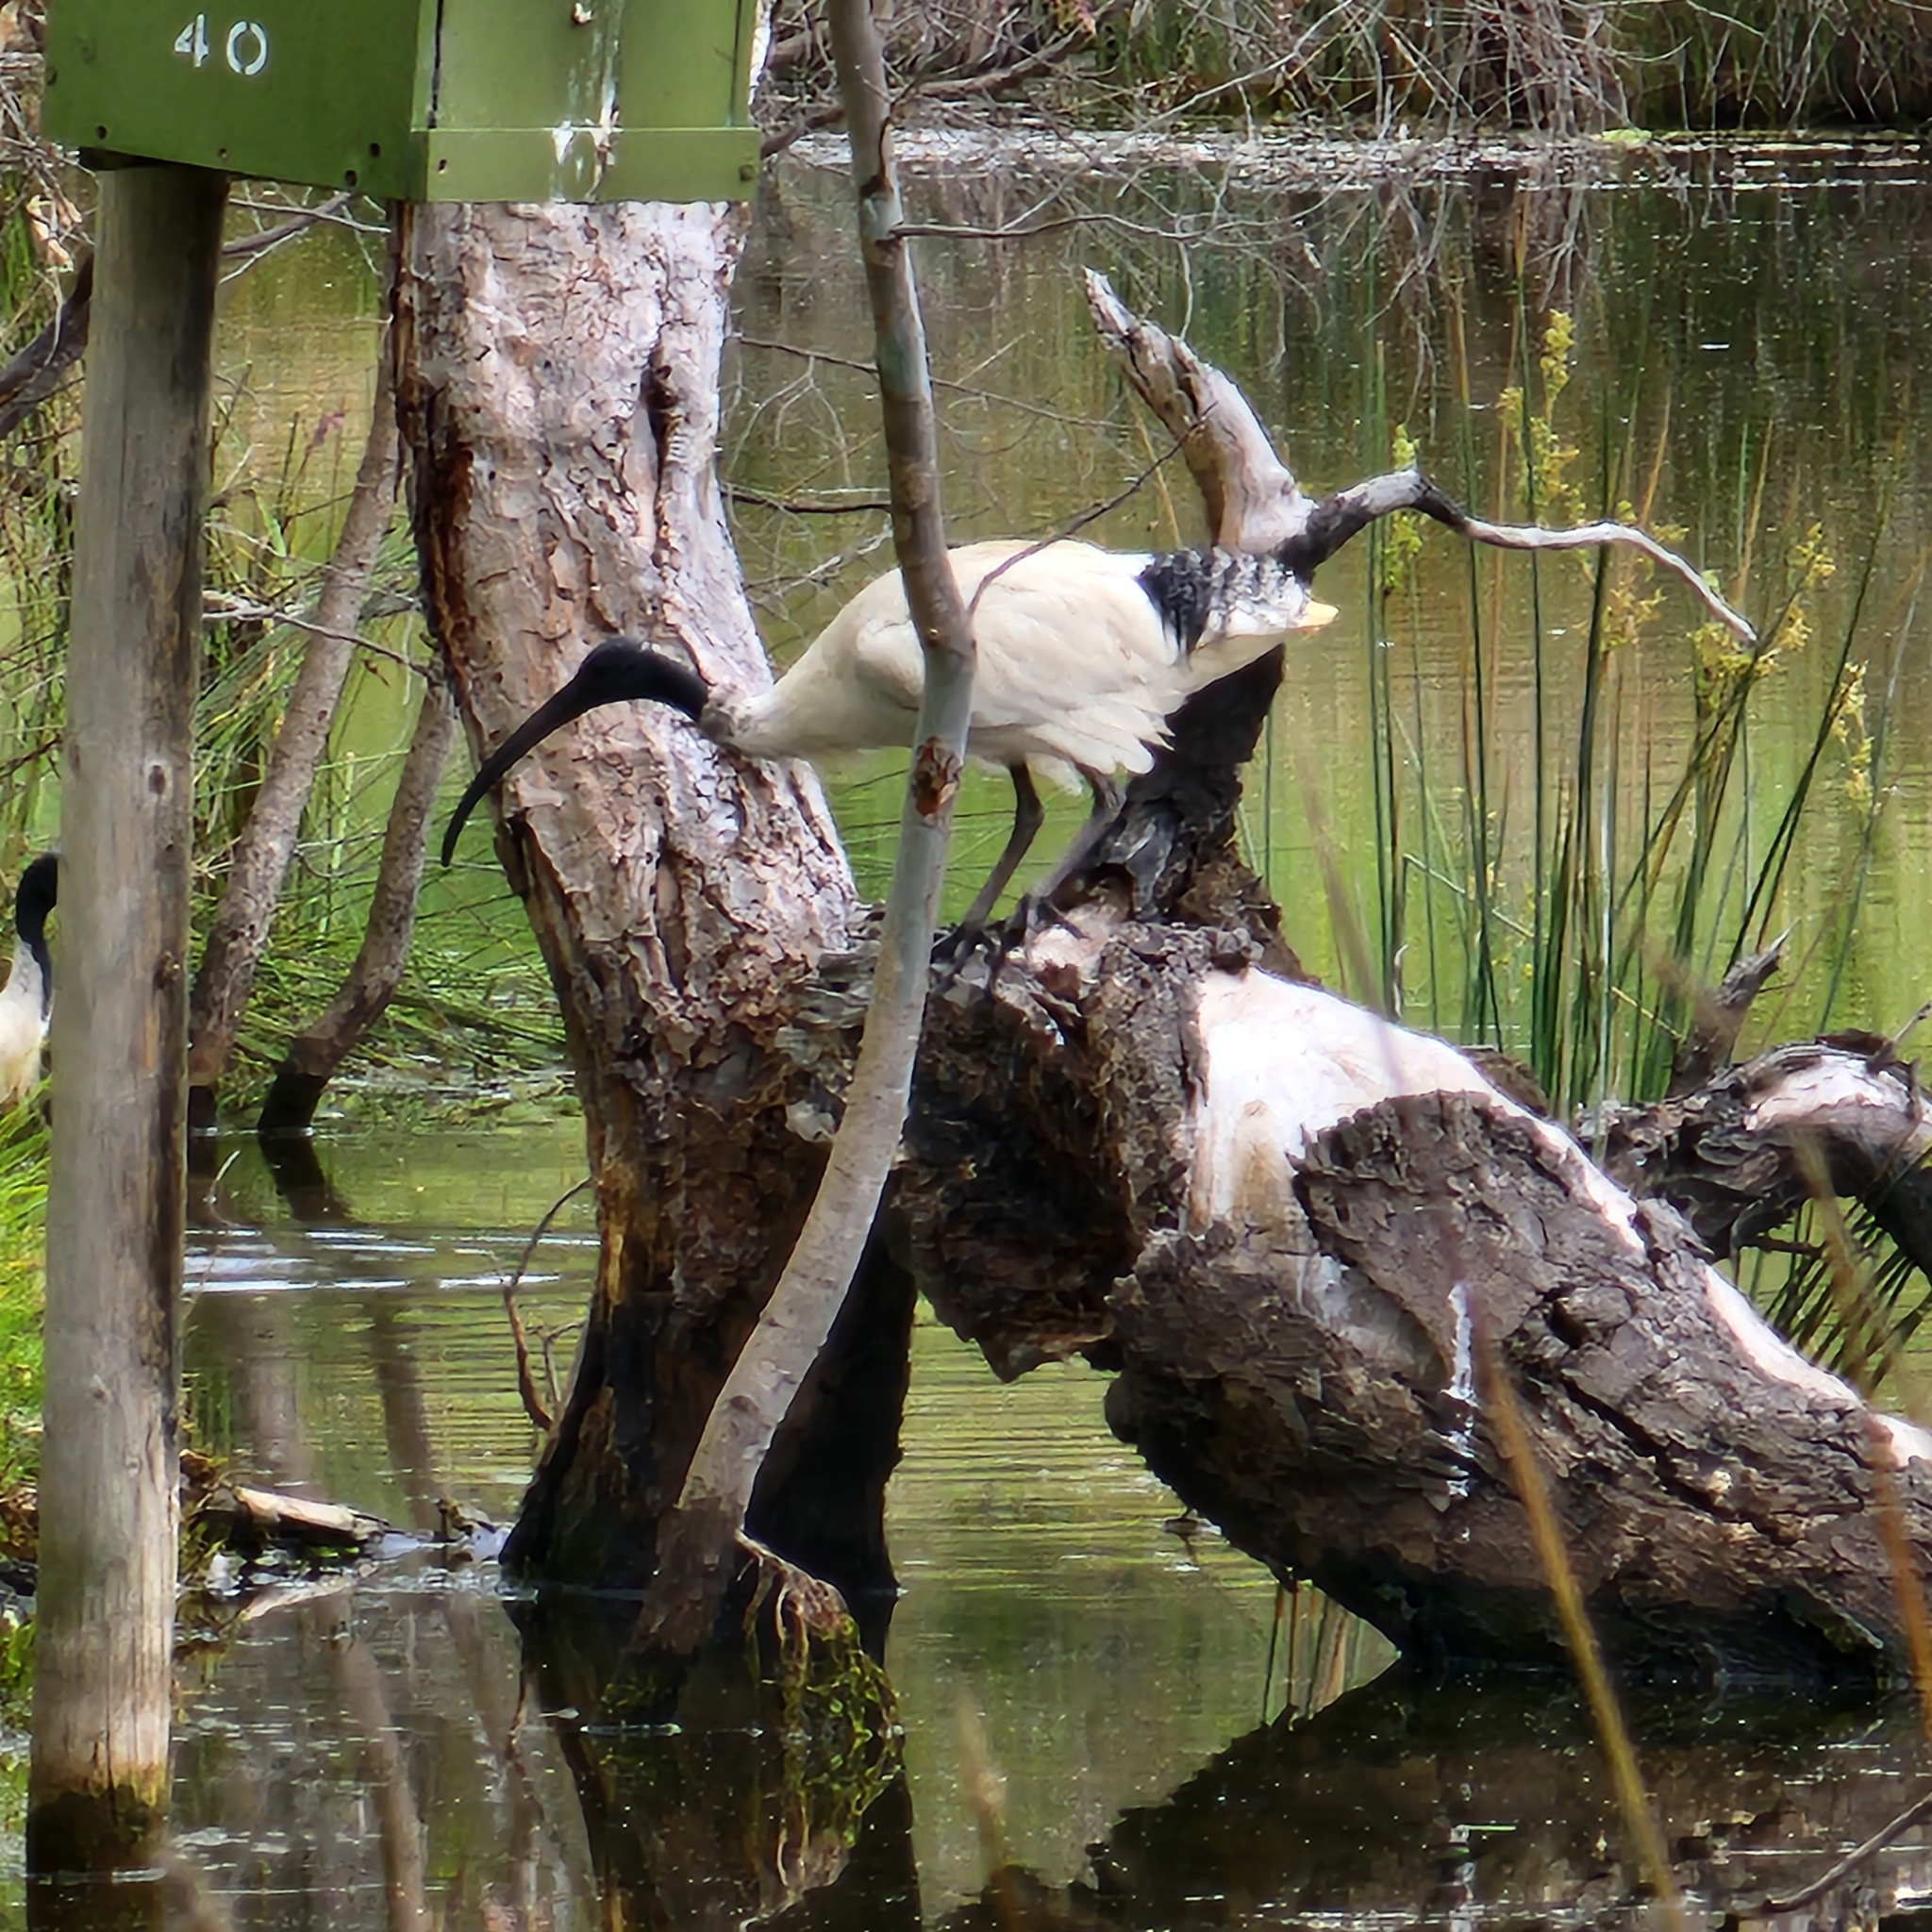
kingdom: Animalia
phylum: Chordata
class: Aves
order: Pelecaniformes
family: Threskiornithidae
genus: Threskiornis
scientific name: Threskiornis molucca
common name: Australian white ibis
